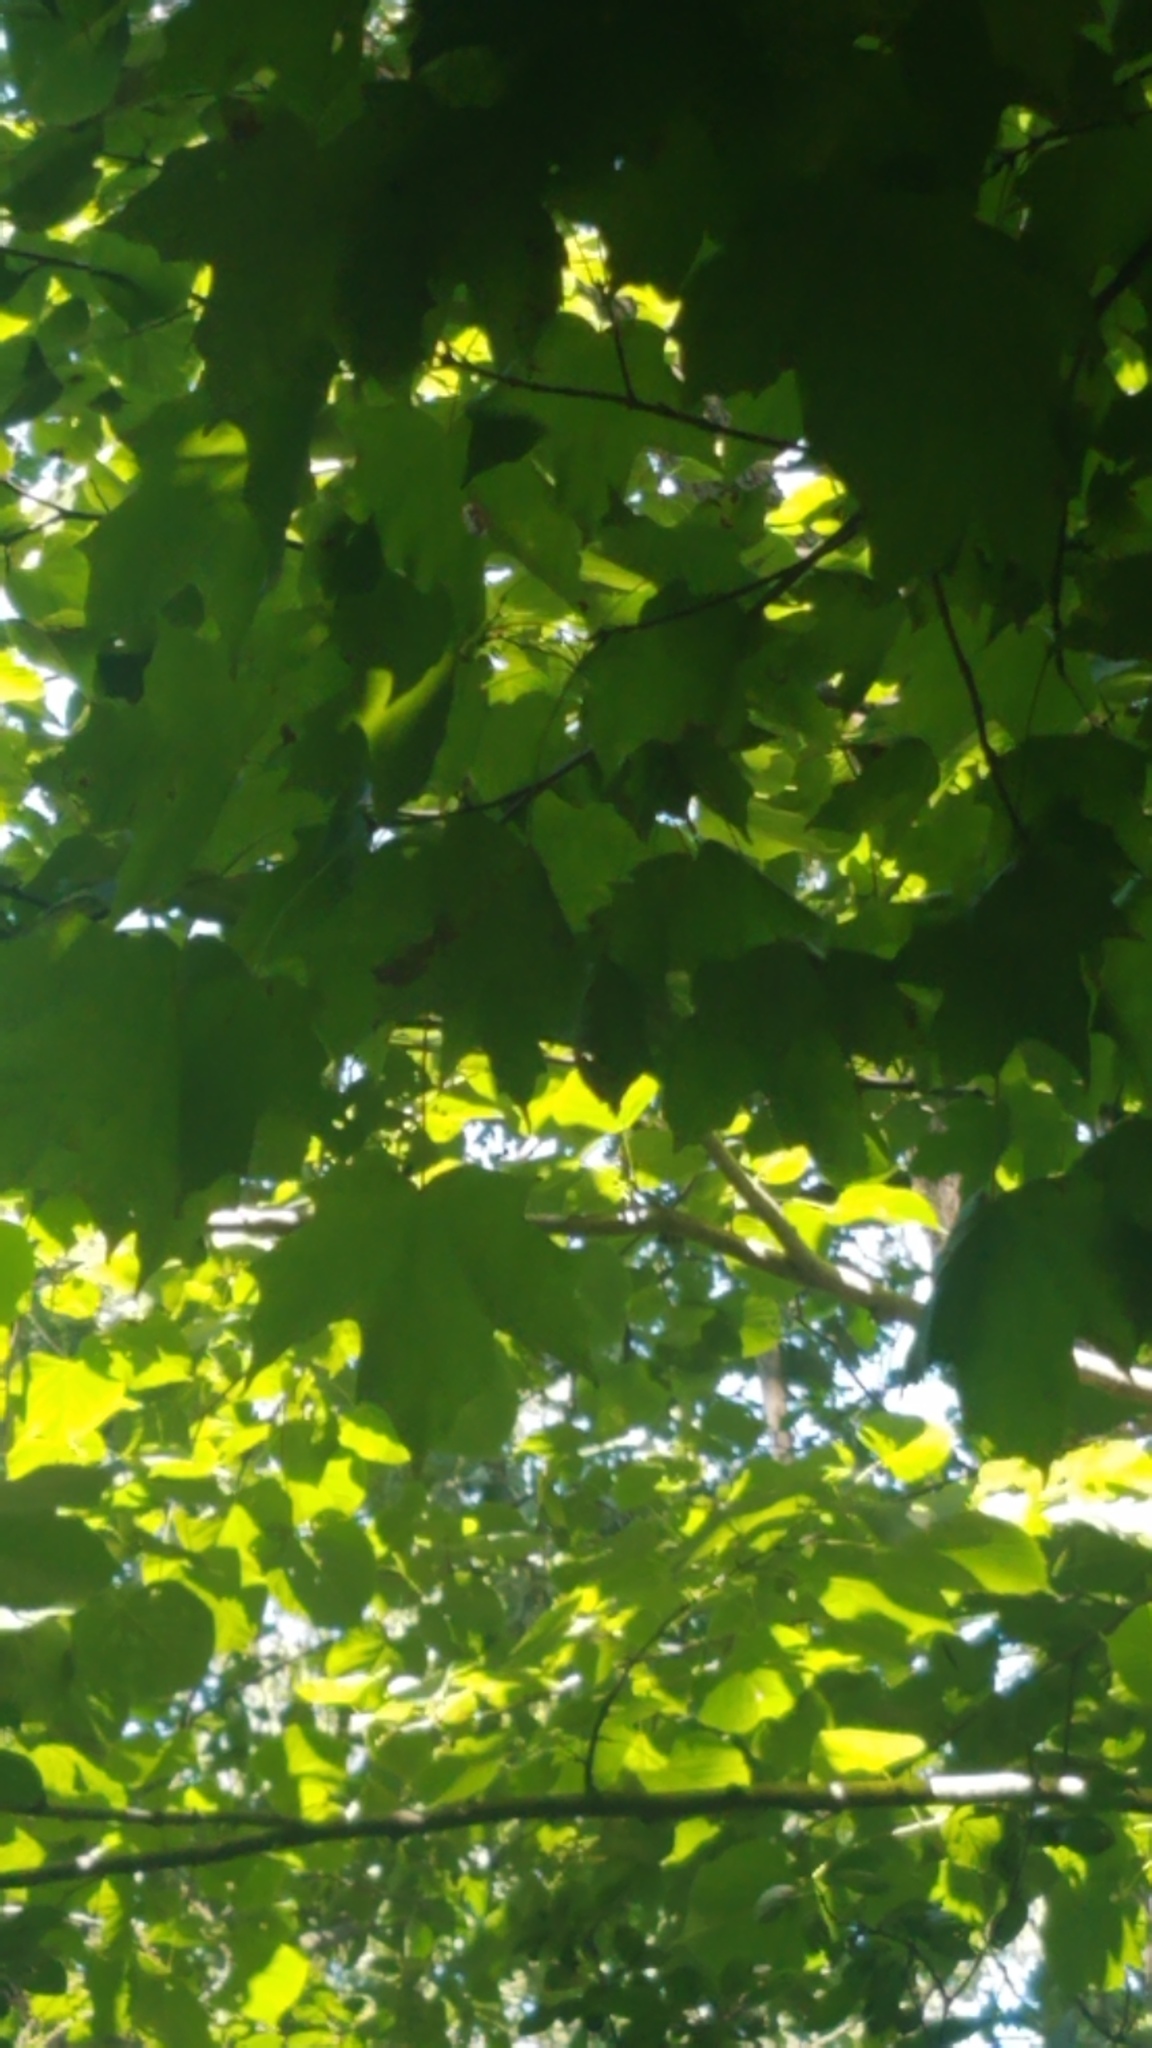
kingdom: Plantae
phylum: Tracheophyta
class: Magnoliopsida
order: Sapindales
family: Sapindaceae
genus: Acer
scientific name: Acer saccharum
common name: Sugar maple
